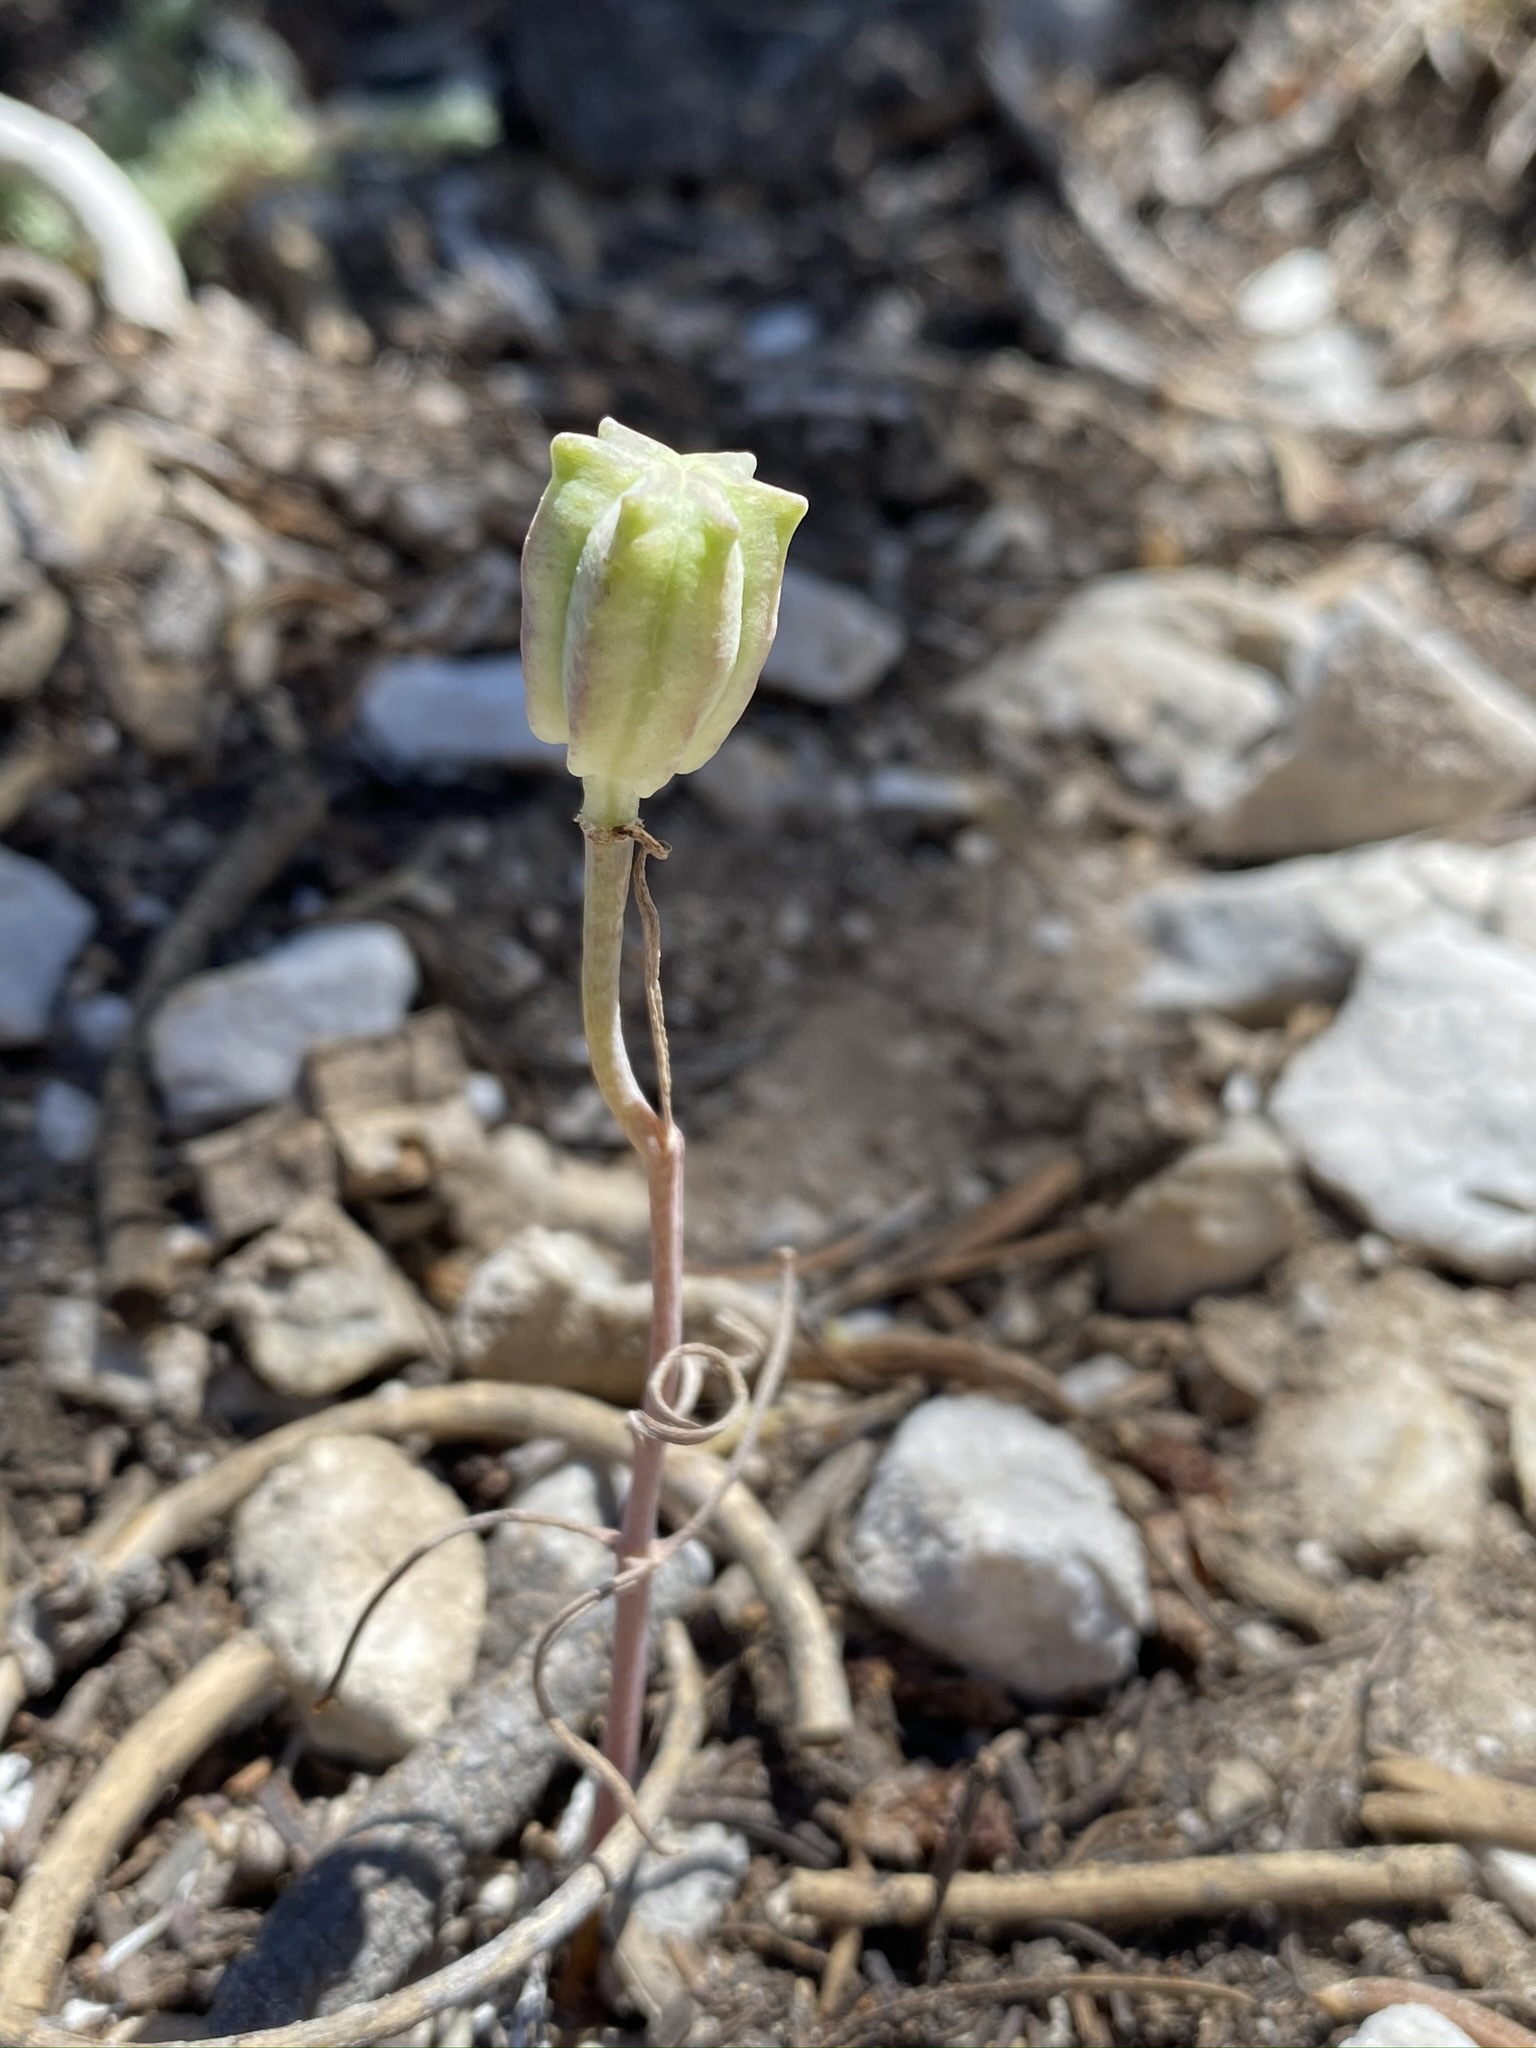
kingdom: Plantae
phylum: Tracheophyta
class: Liliopsida
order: Liliales
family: Liliaceae
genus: Fritillaria
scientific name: Fritillaria atropurpurea
